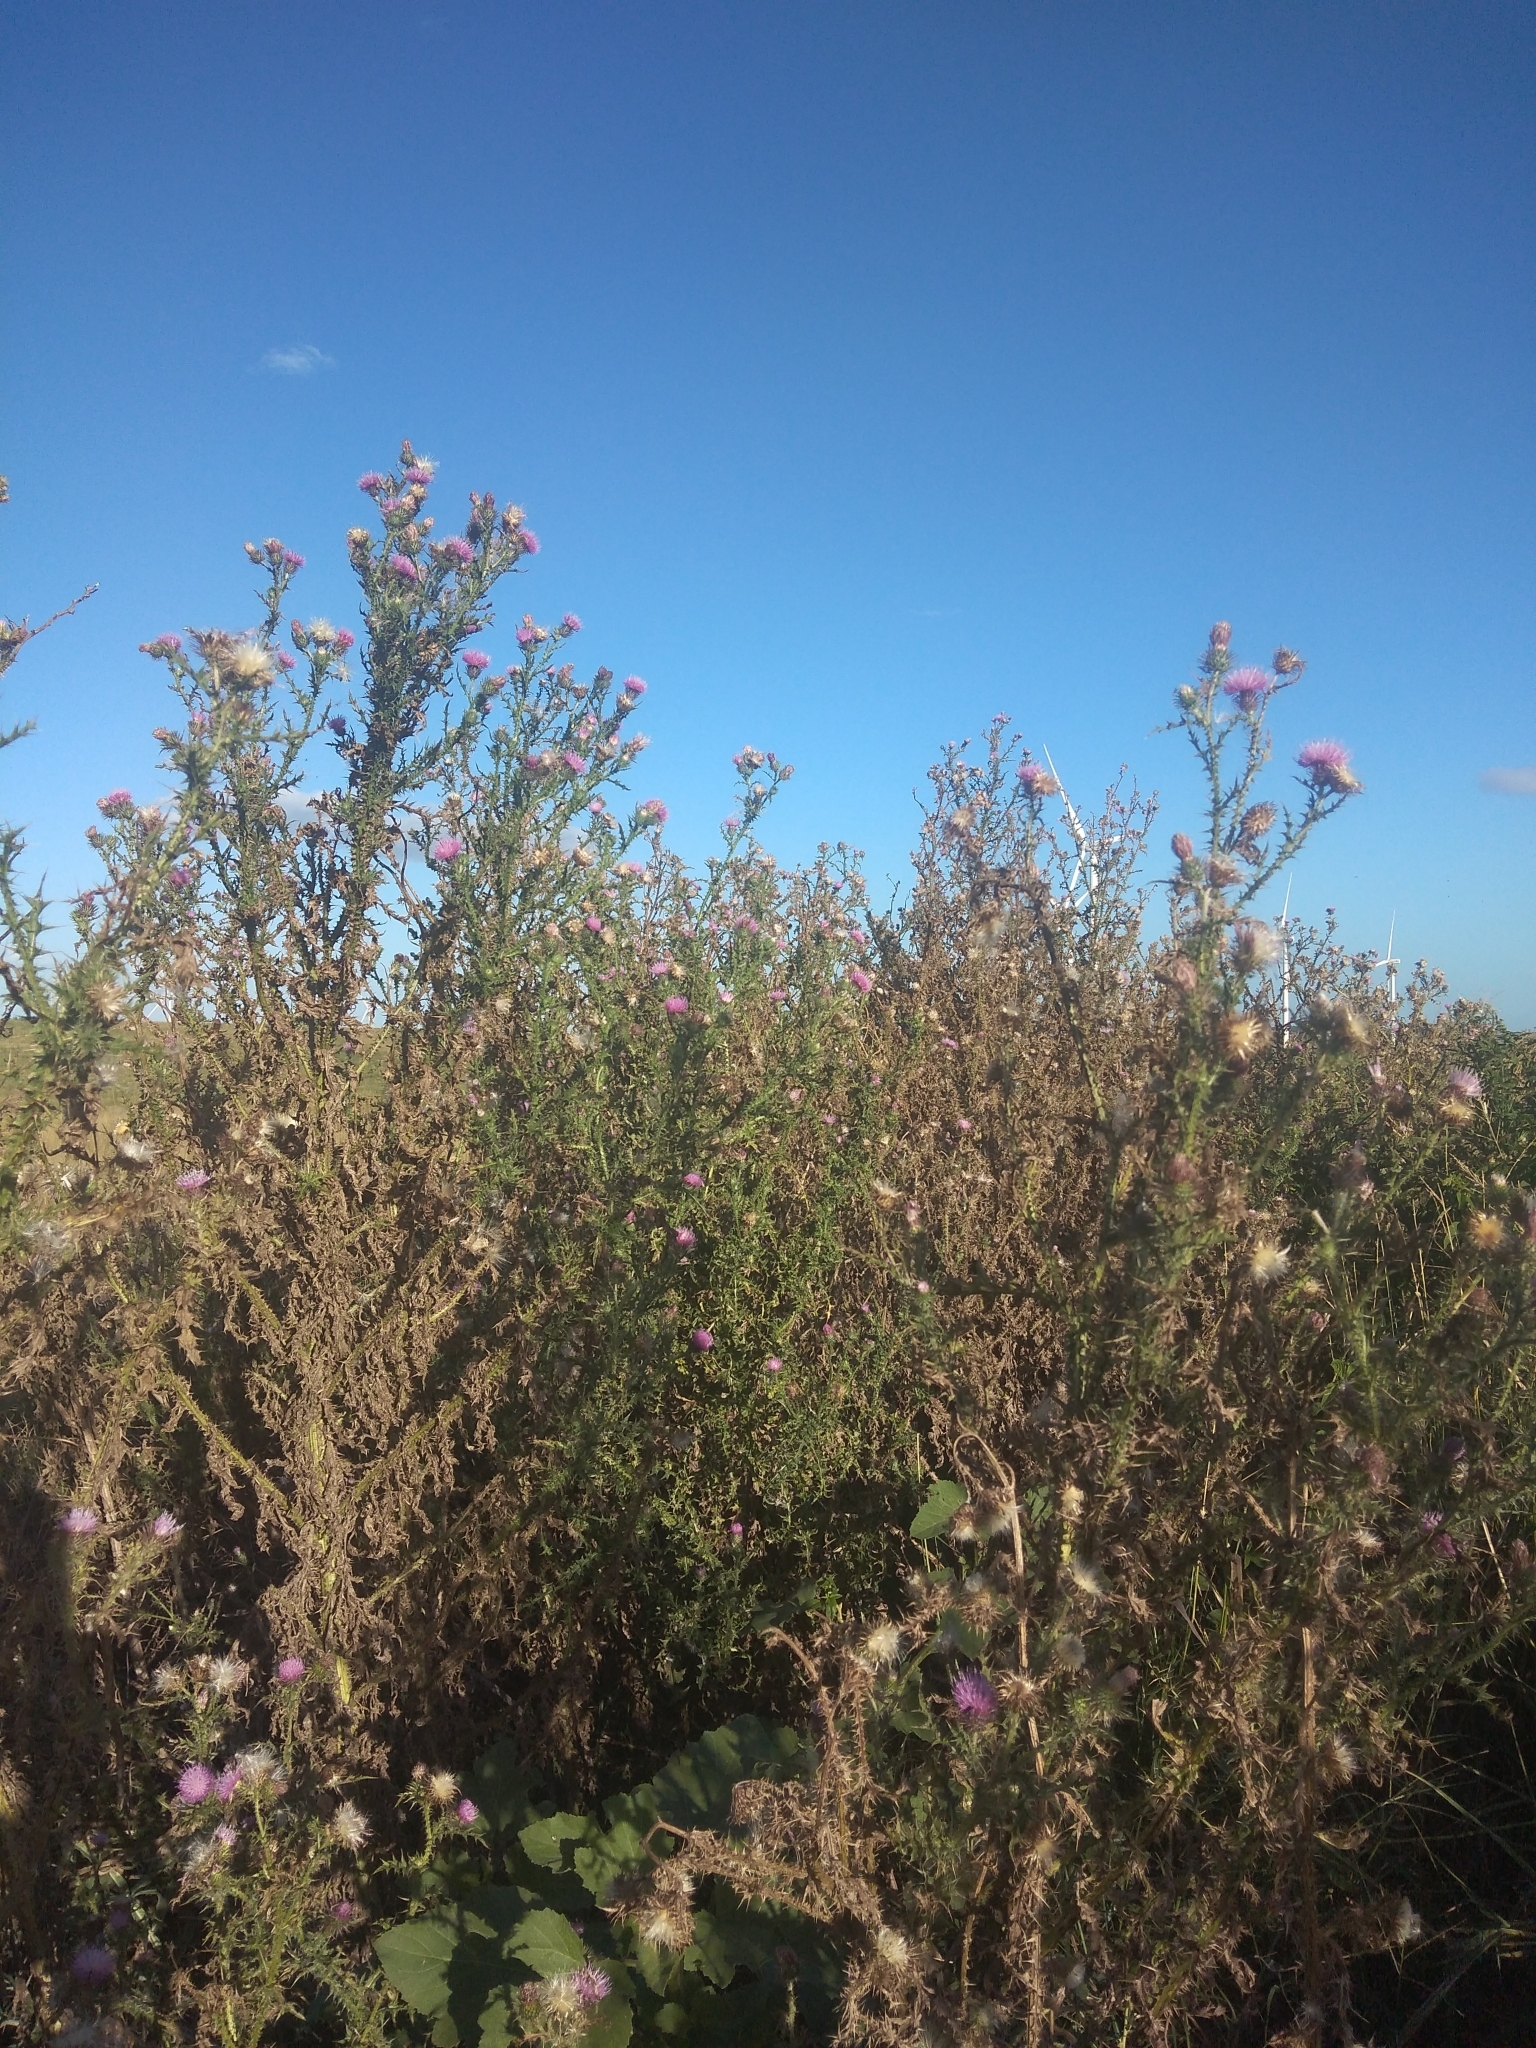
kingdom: Plantae
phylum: Tracheophyta
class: Magnoliopsida
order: Asterales
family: Asteraceae
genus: Carduus
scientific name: Carduus acanthoides
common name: Plumeless thistle
